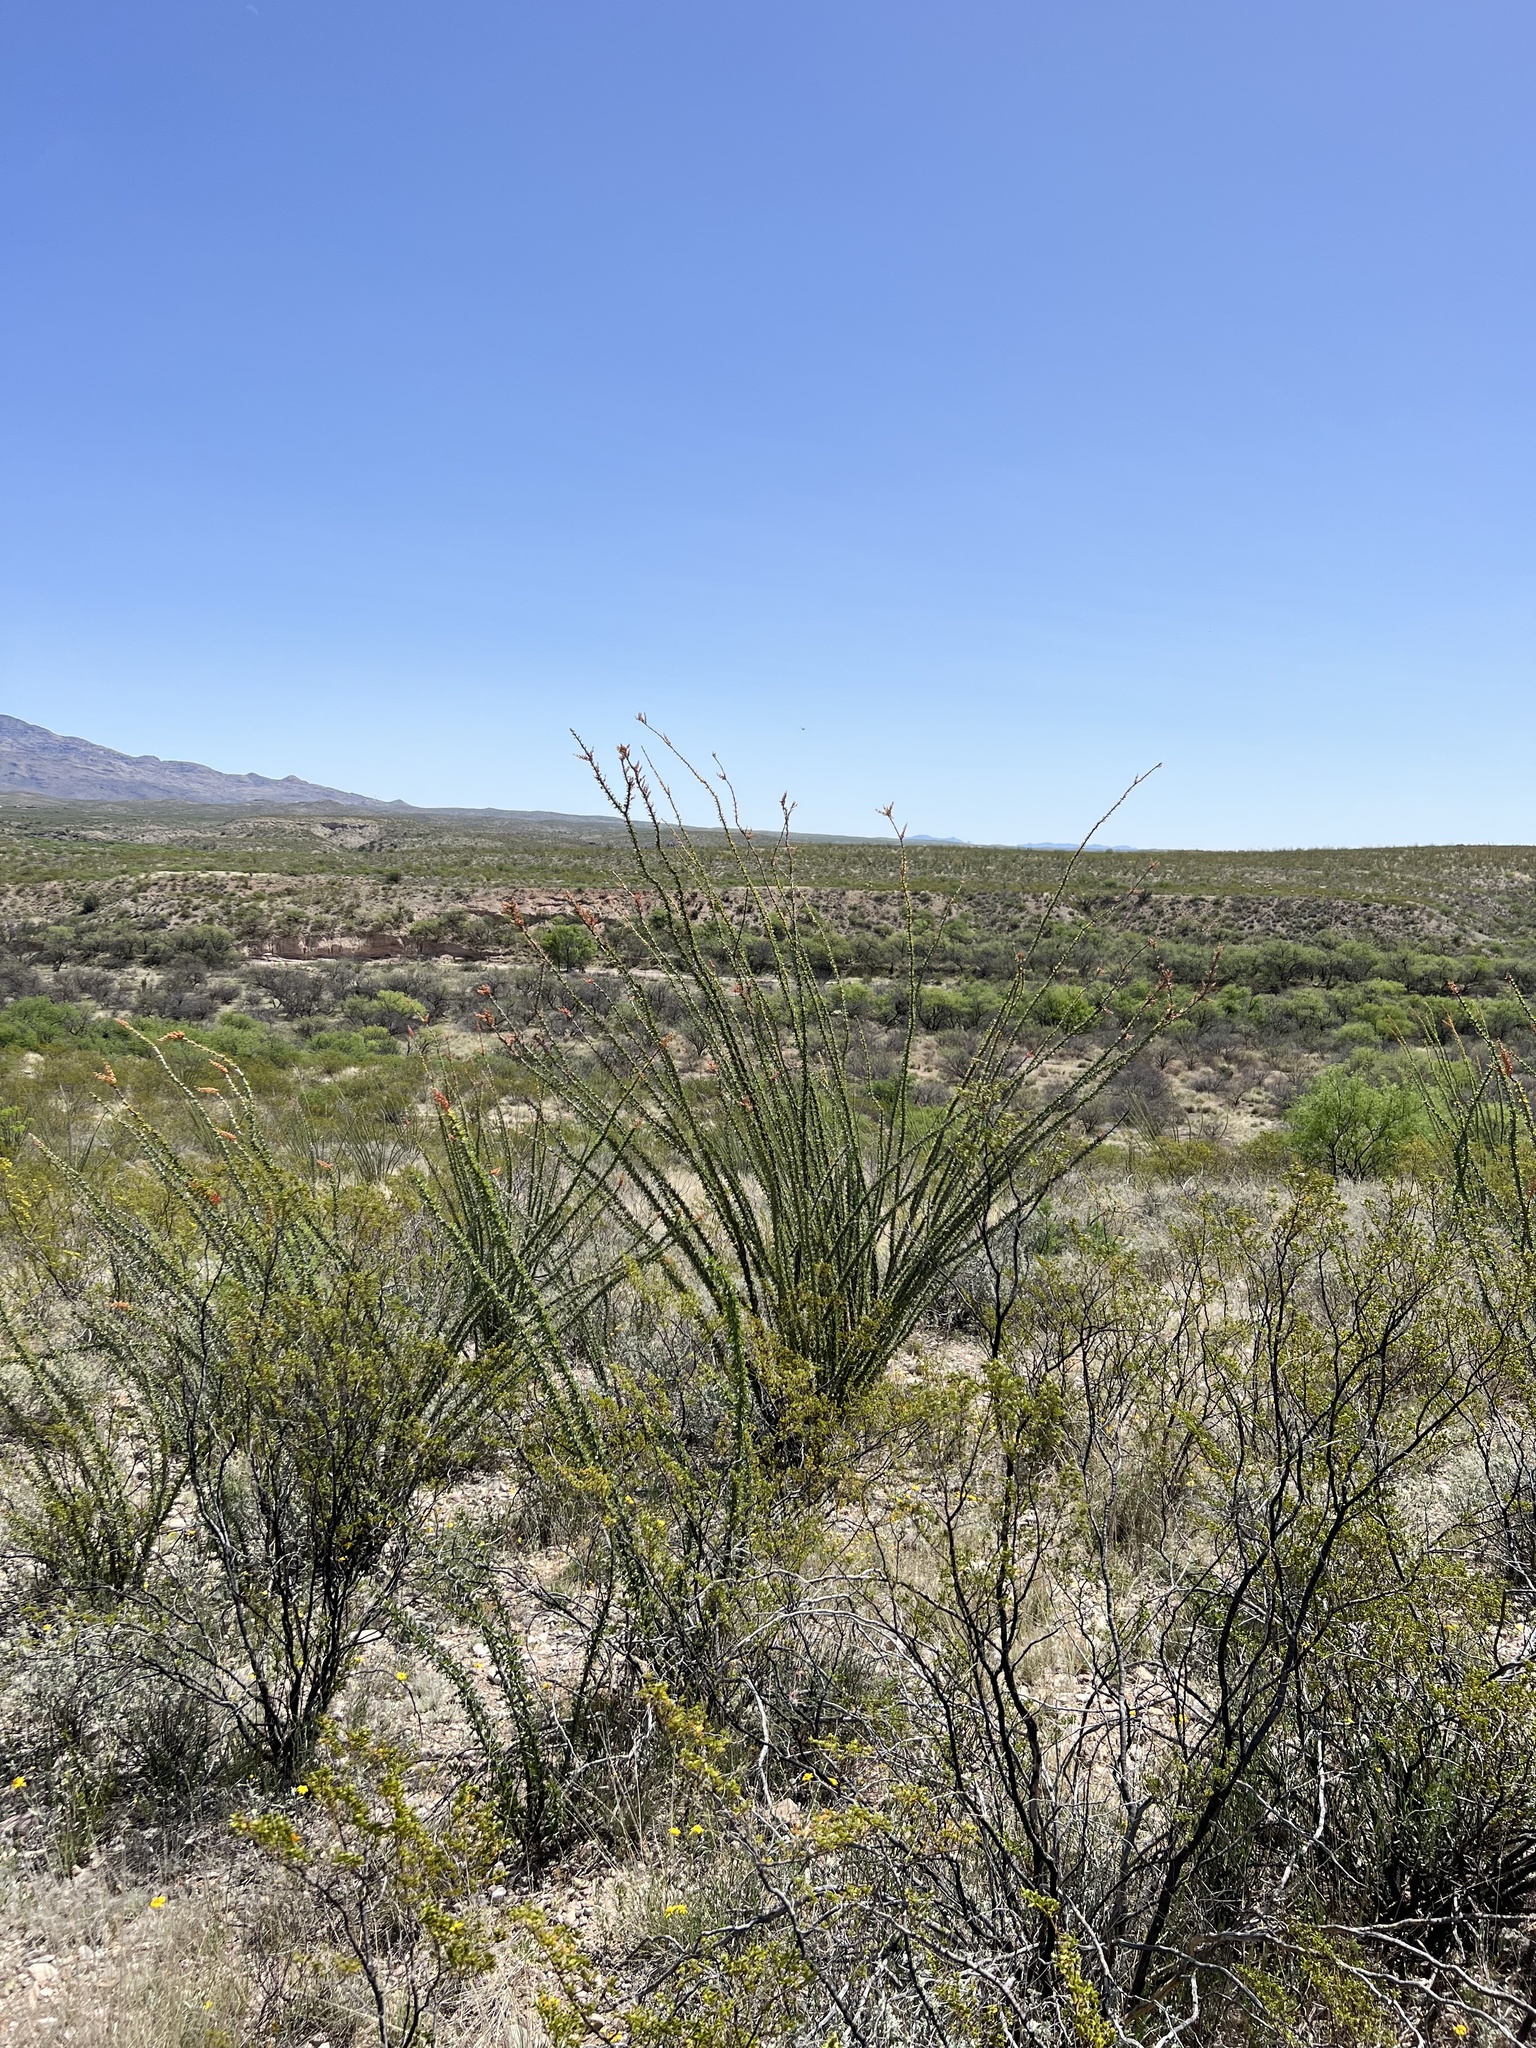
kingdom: Plantae
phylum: Tracheophyta
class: Magnoliopsida
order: Ericales
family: Fouquieriaceae
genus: Fouquieria
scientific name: Fouquieria splendens
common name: Vine-cactus
